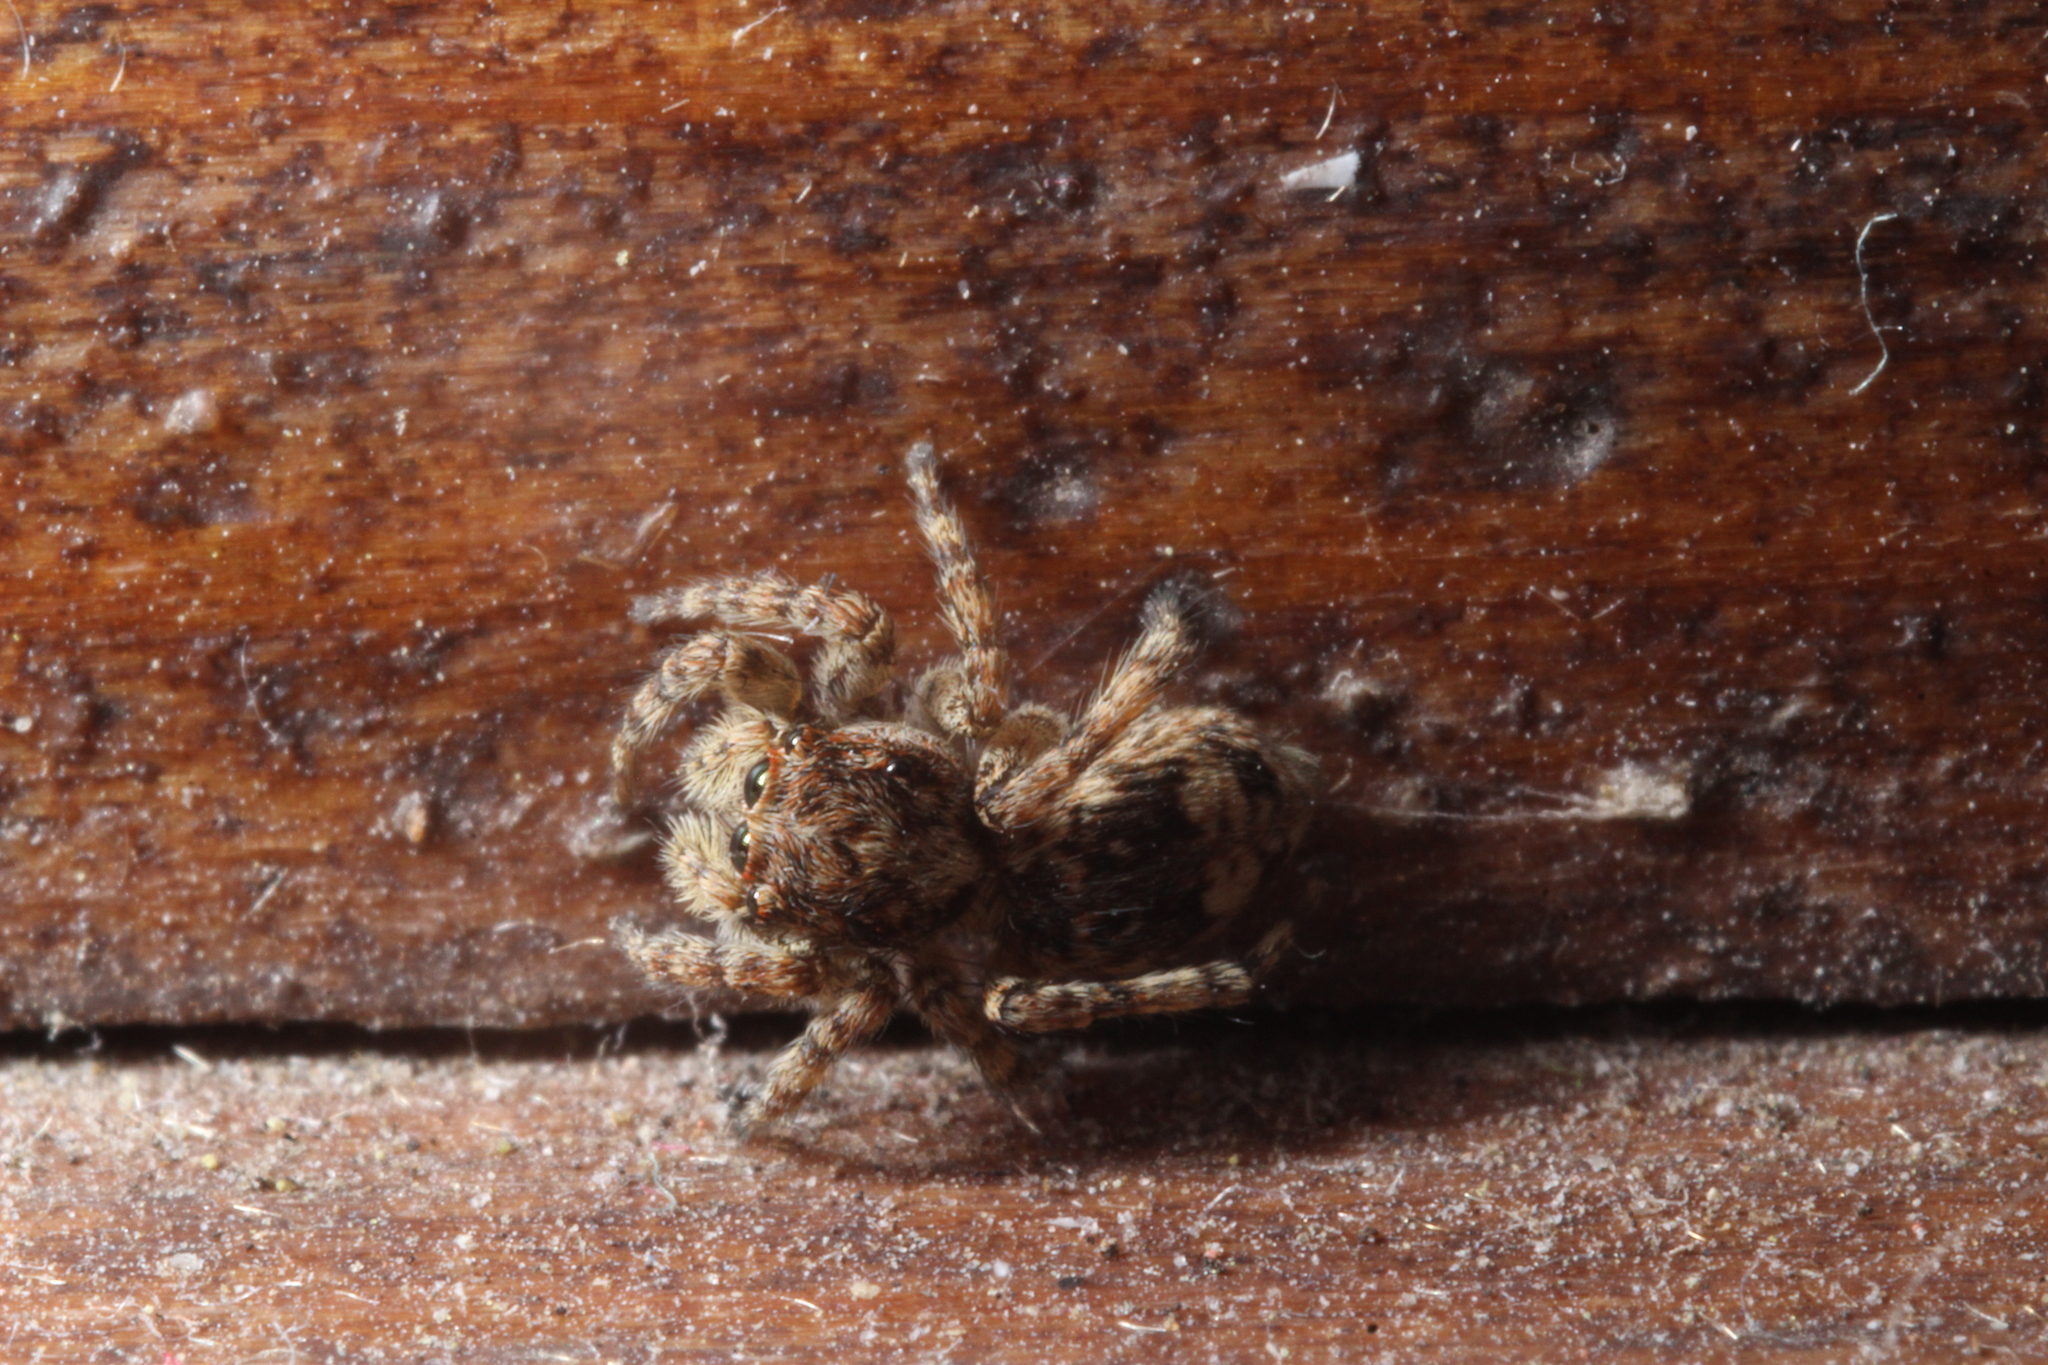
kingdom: Animalia
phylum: Arthropoda
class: Arachnida
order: Araneae
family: Salticidae
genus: Attulus
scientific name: Attulus fasciger
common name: Asiatic wall jumping spider
